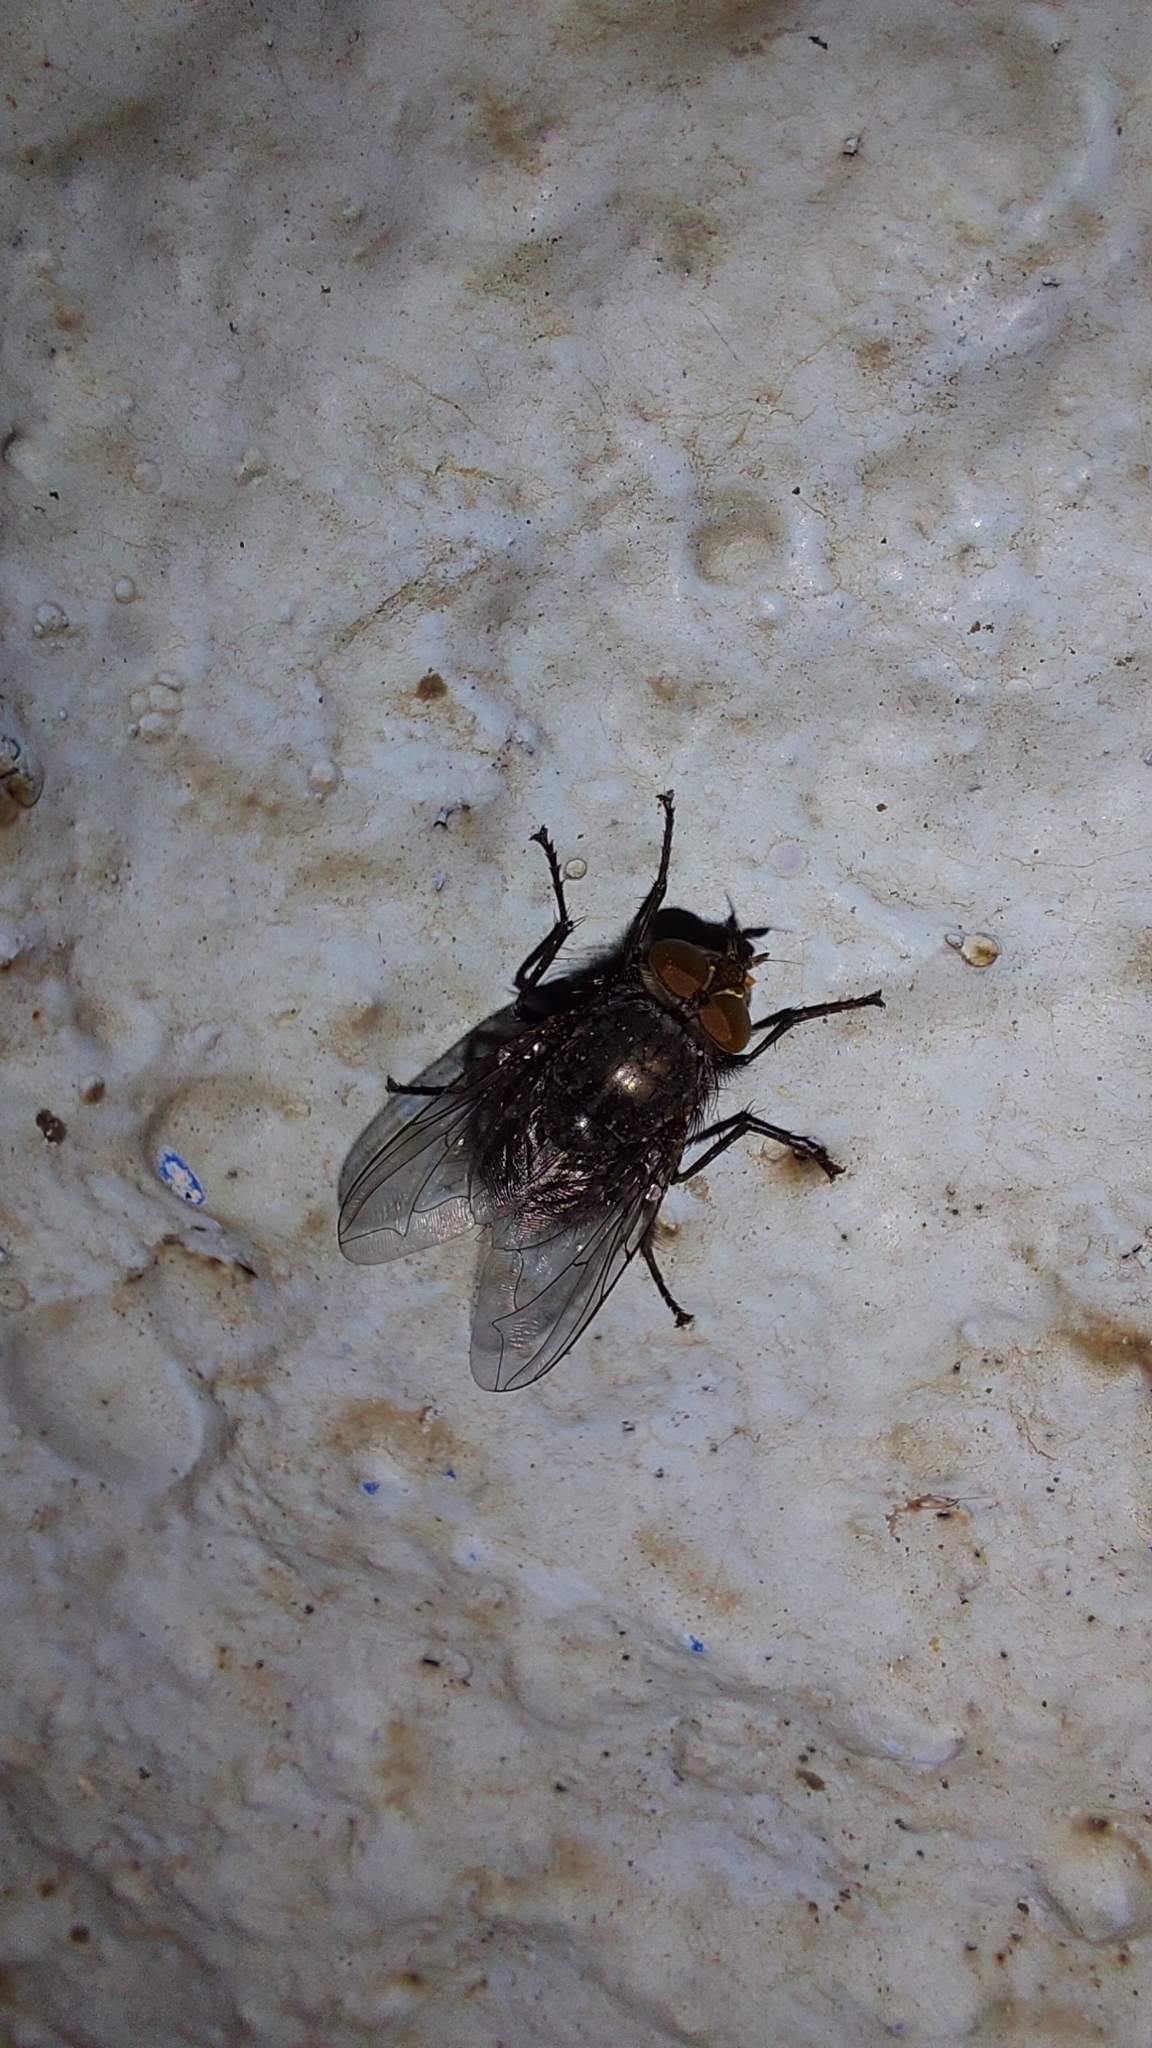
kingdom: Animalia
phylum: Arthropoda
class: Insecta
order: Diptera
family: Calliphoridae
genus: Calliphora
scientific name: Calliphora vicina
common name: Common blow flie
